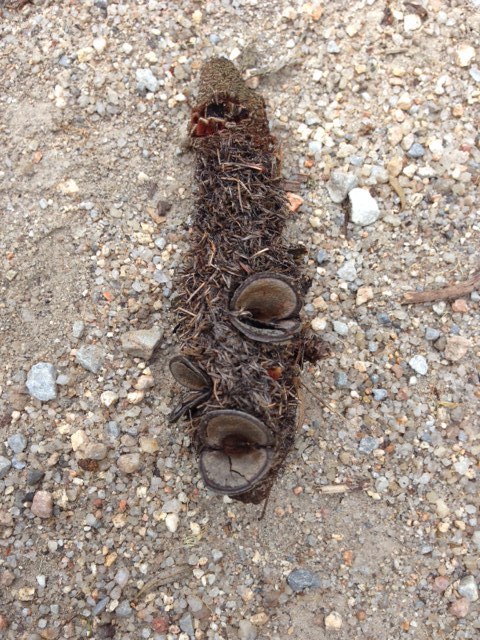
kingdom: Plantae
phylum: Tracheophyta
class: Magnoliopsida
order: Proteales
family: Proteaceae
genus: Banksia
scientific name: Banksia marginata
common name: Silver banksia
